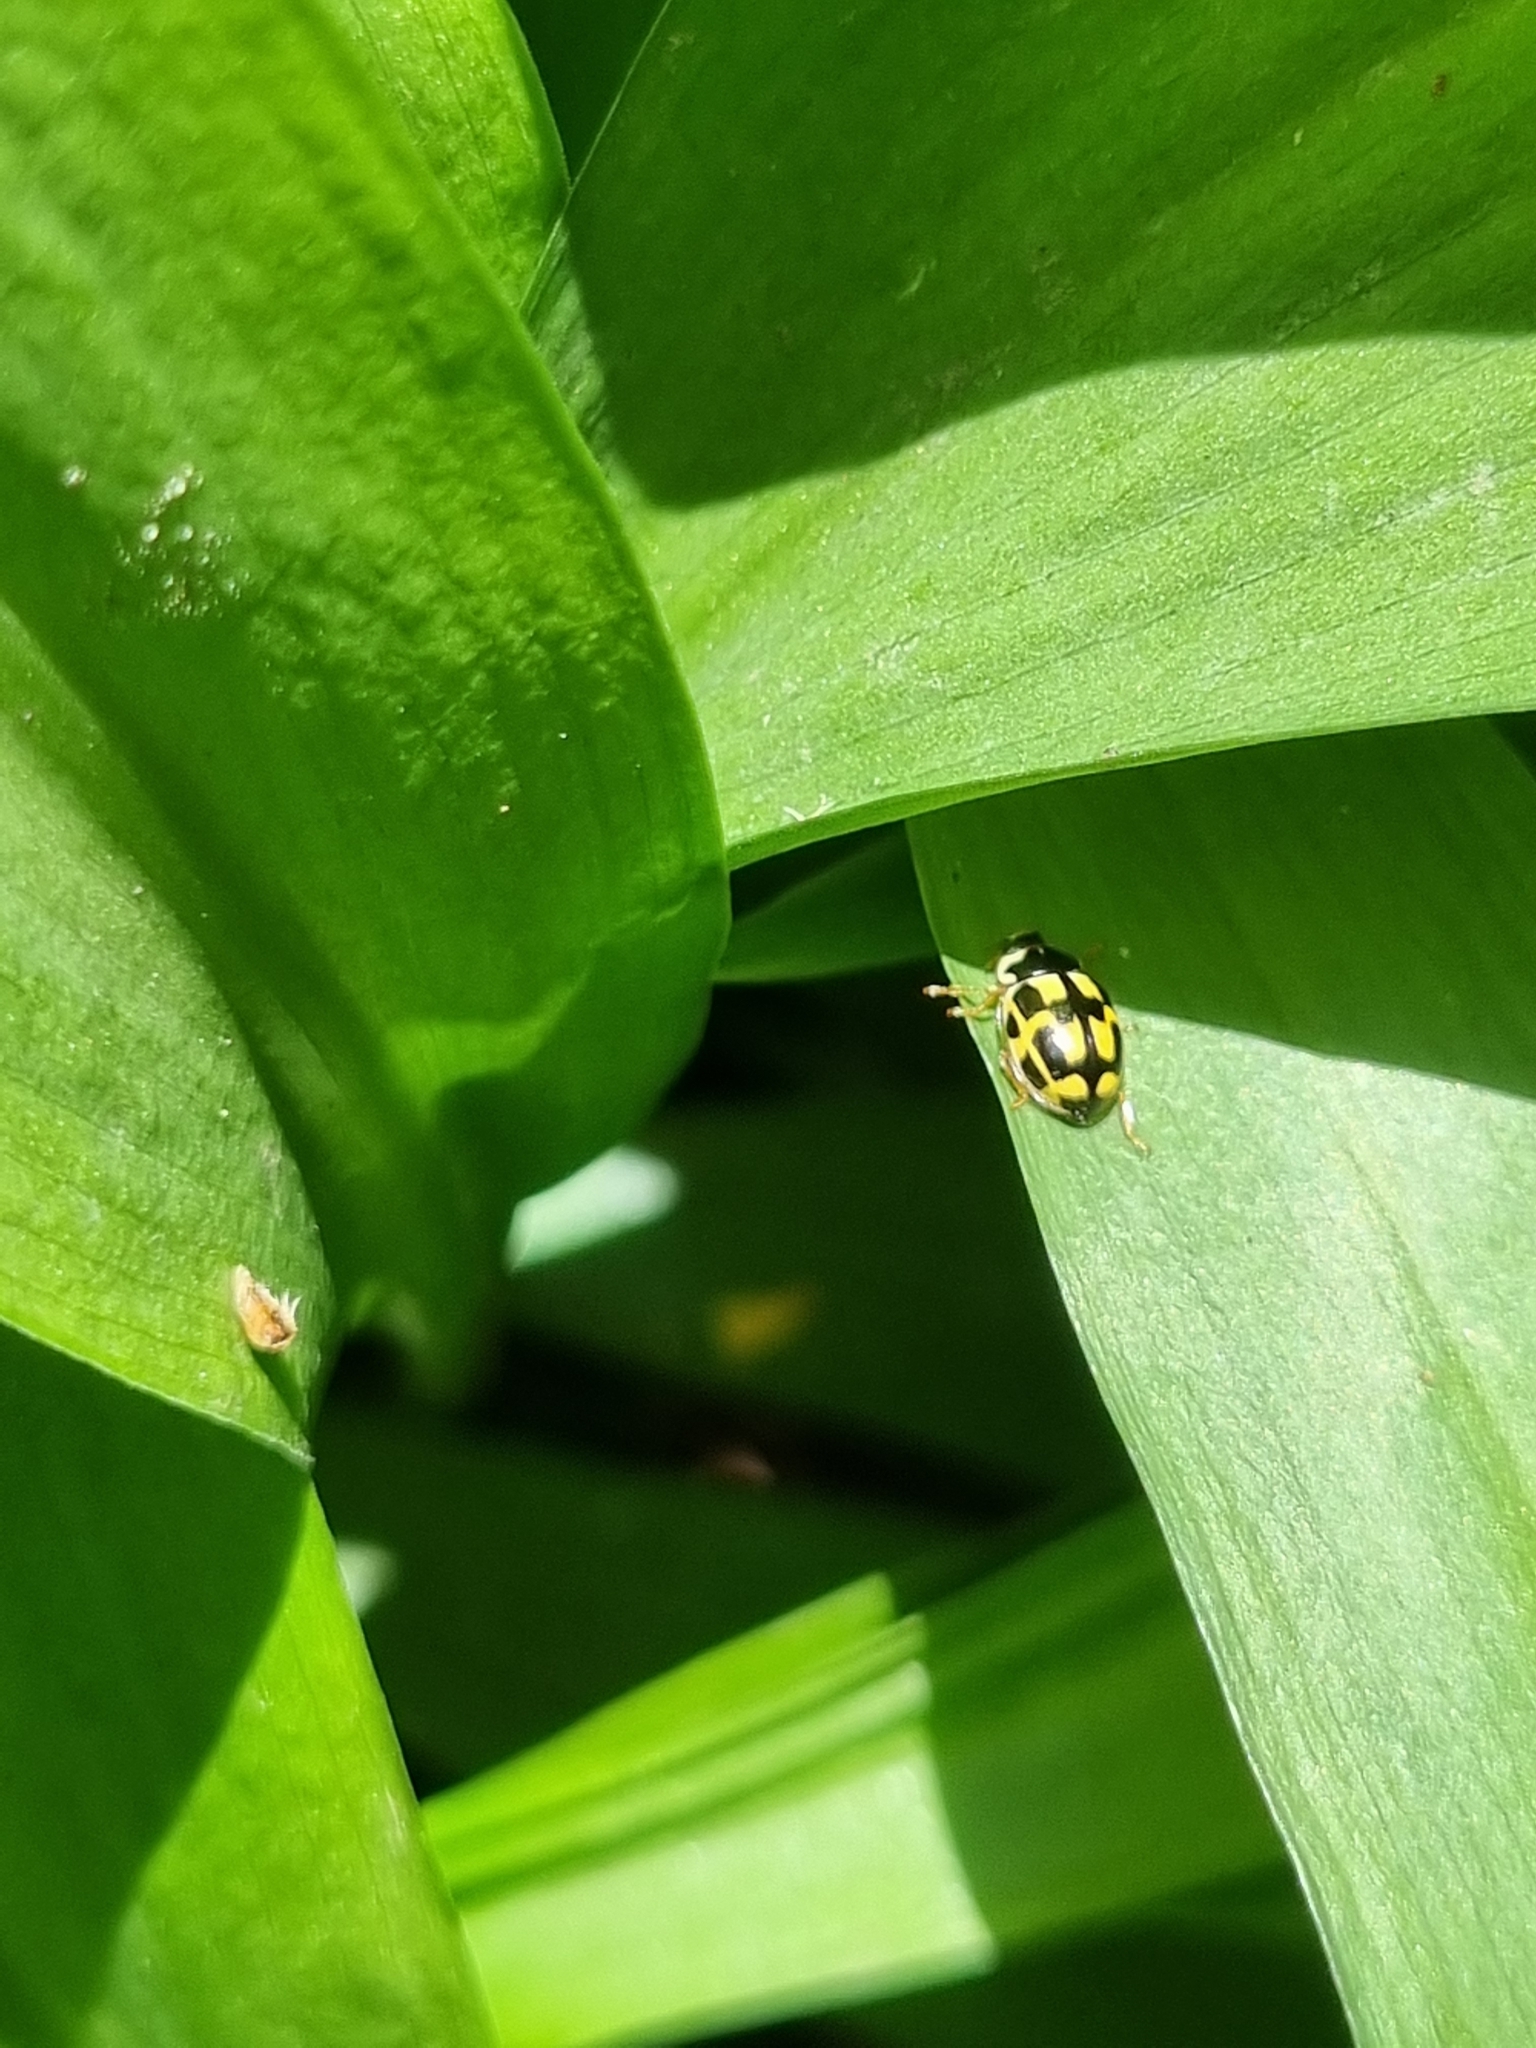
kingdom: Animalia
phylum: Arthropoda
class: Insecta
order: Coleoptera
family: Coccinellidae
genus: Propylaea
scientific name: Propylaea quatuordecimpunctata
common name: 14-spotted ladybird beetle
